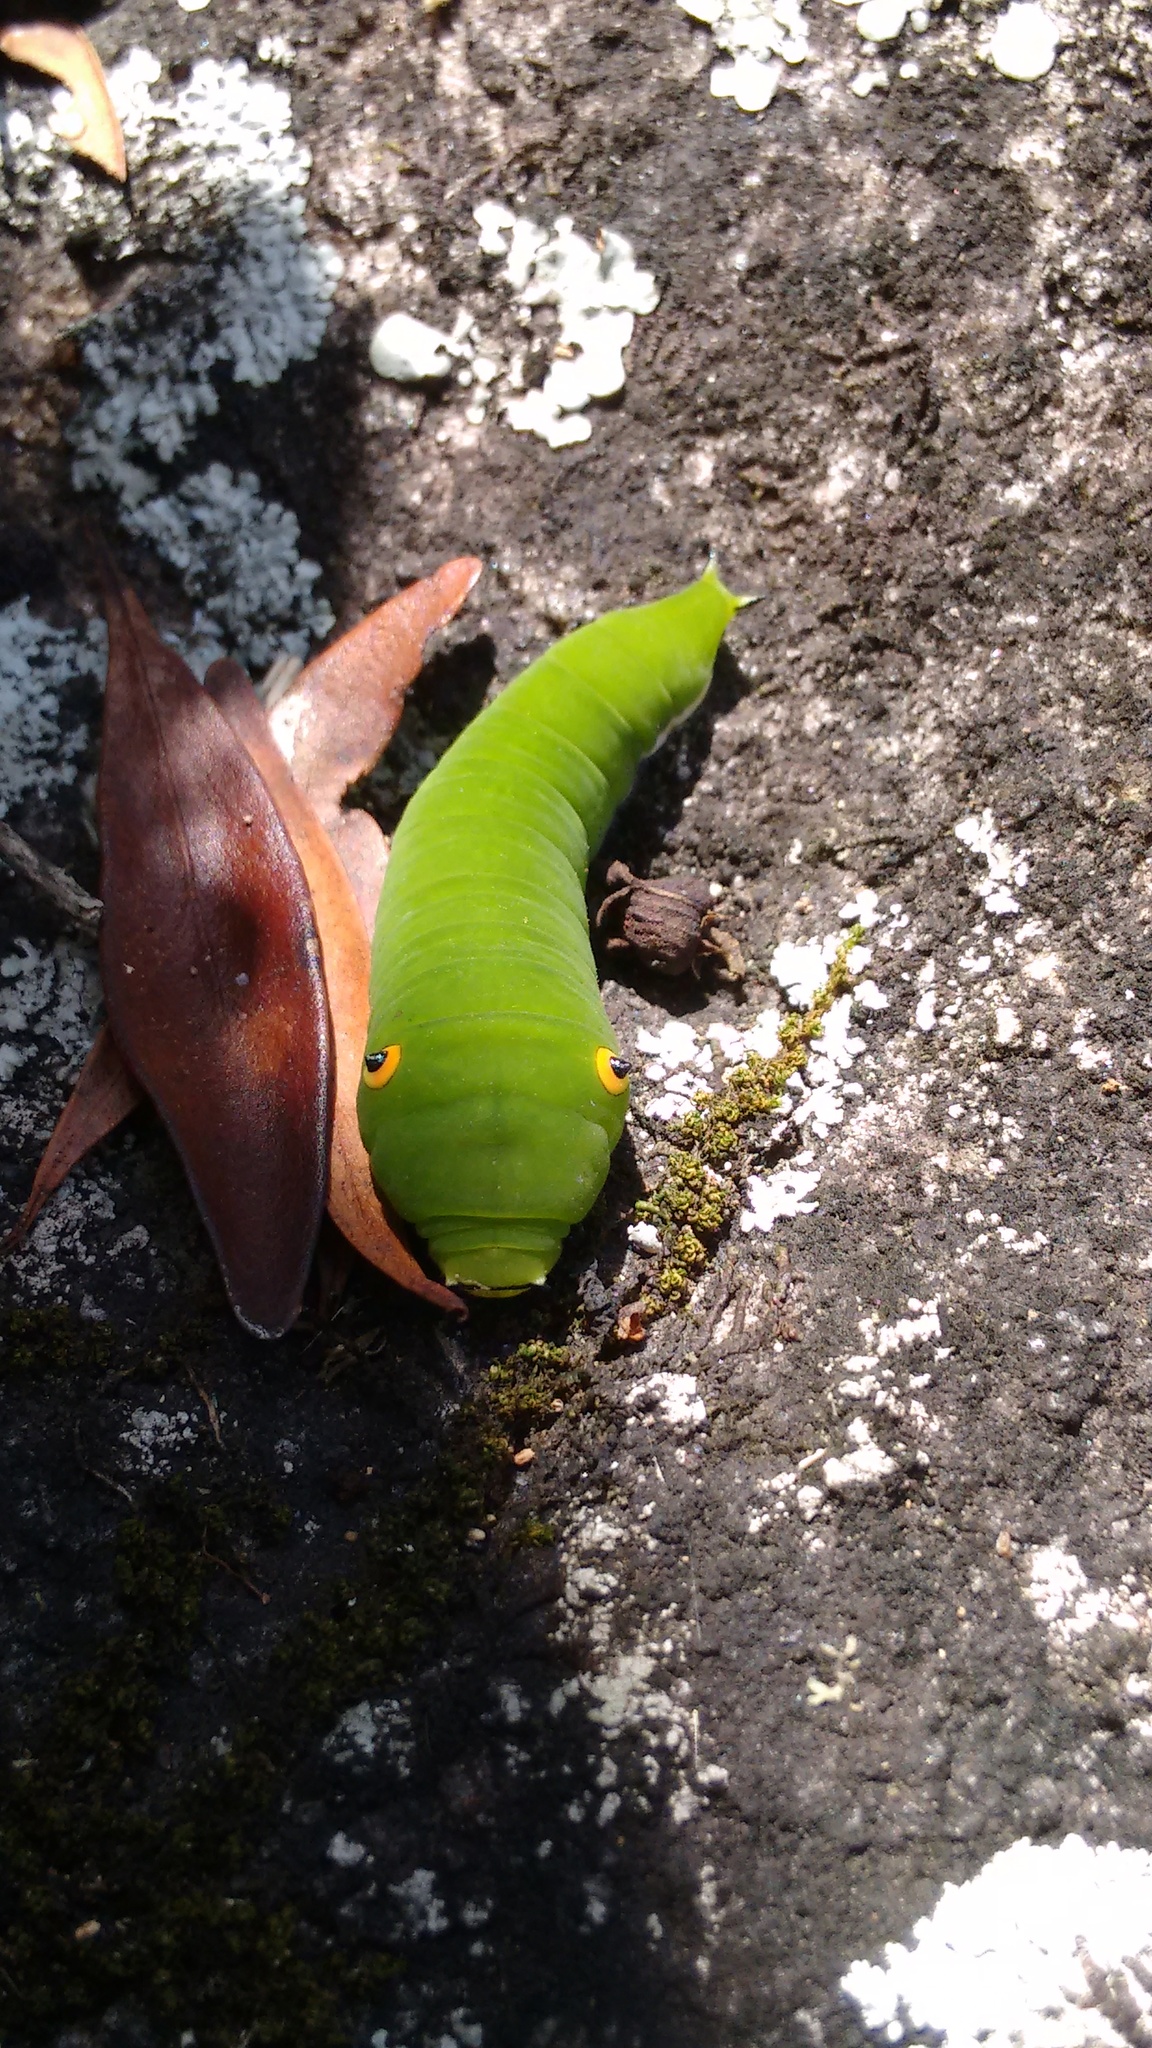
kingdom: Animalia
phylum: Arthropoda
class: Insecta
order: Lepidoptera
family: Papilionidae
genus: Graphium
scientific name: Graphium doson
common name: Common jay
